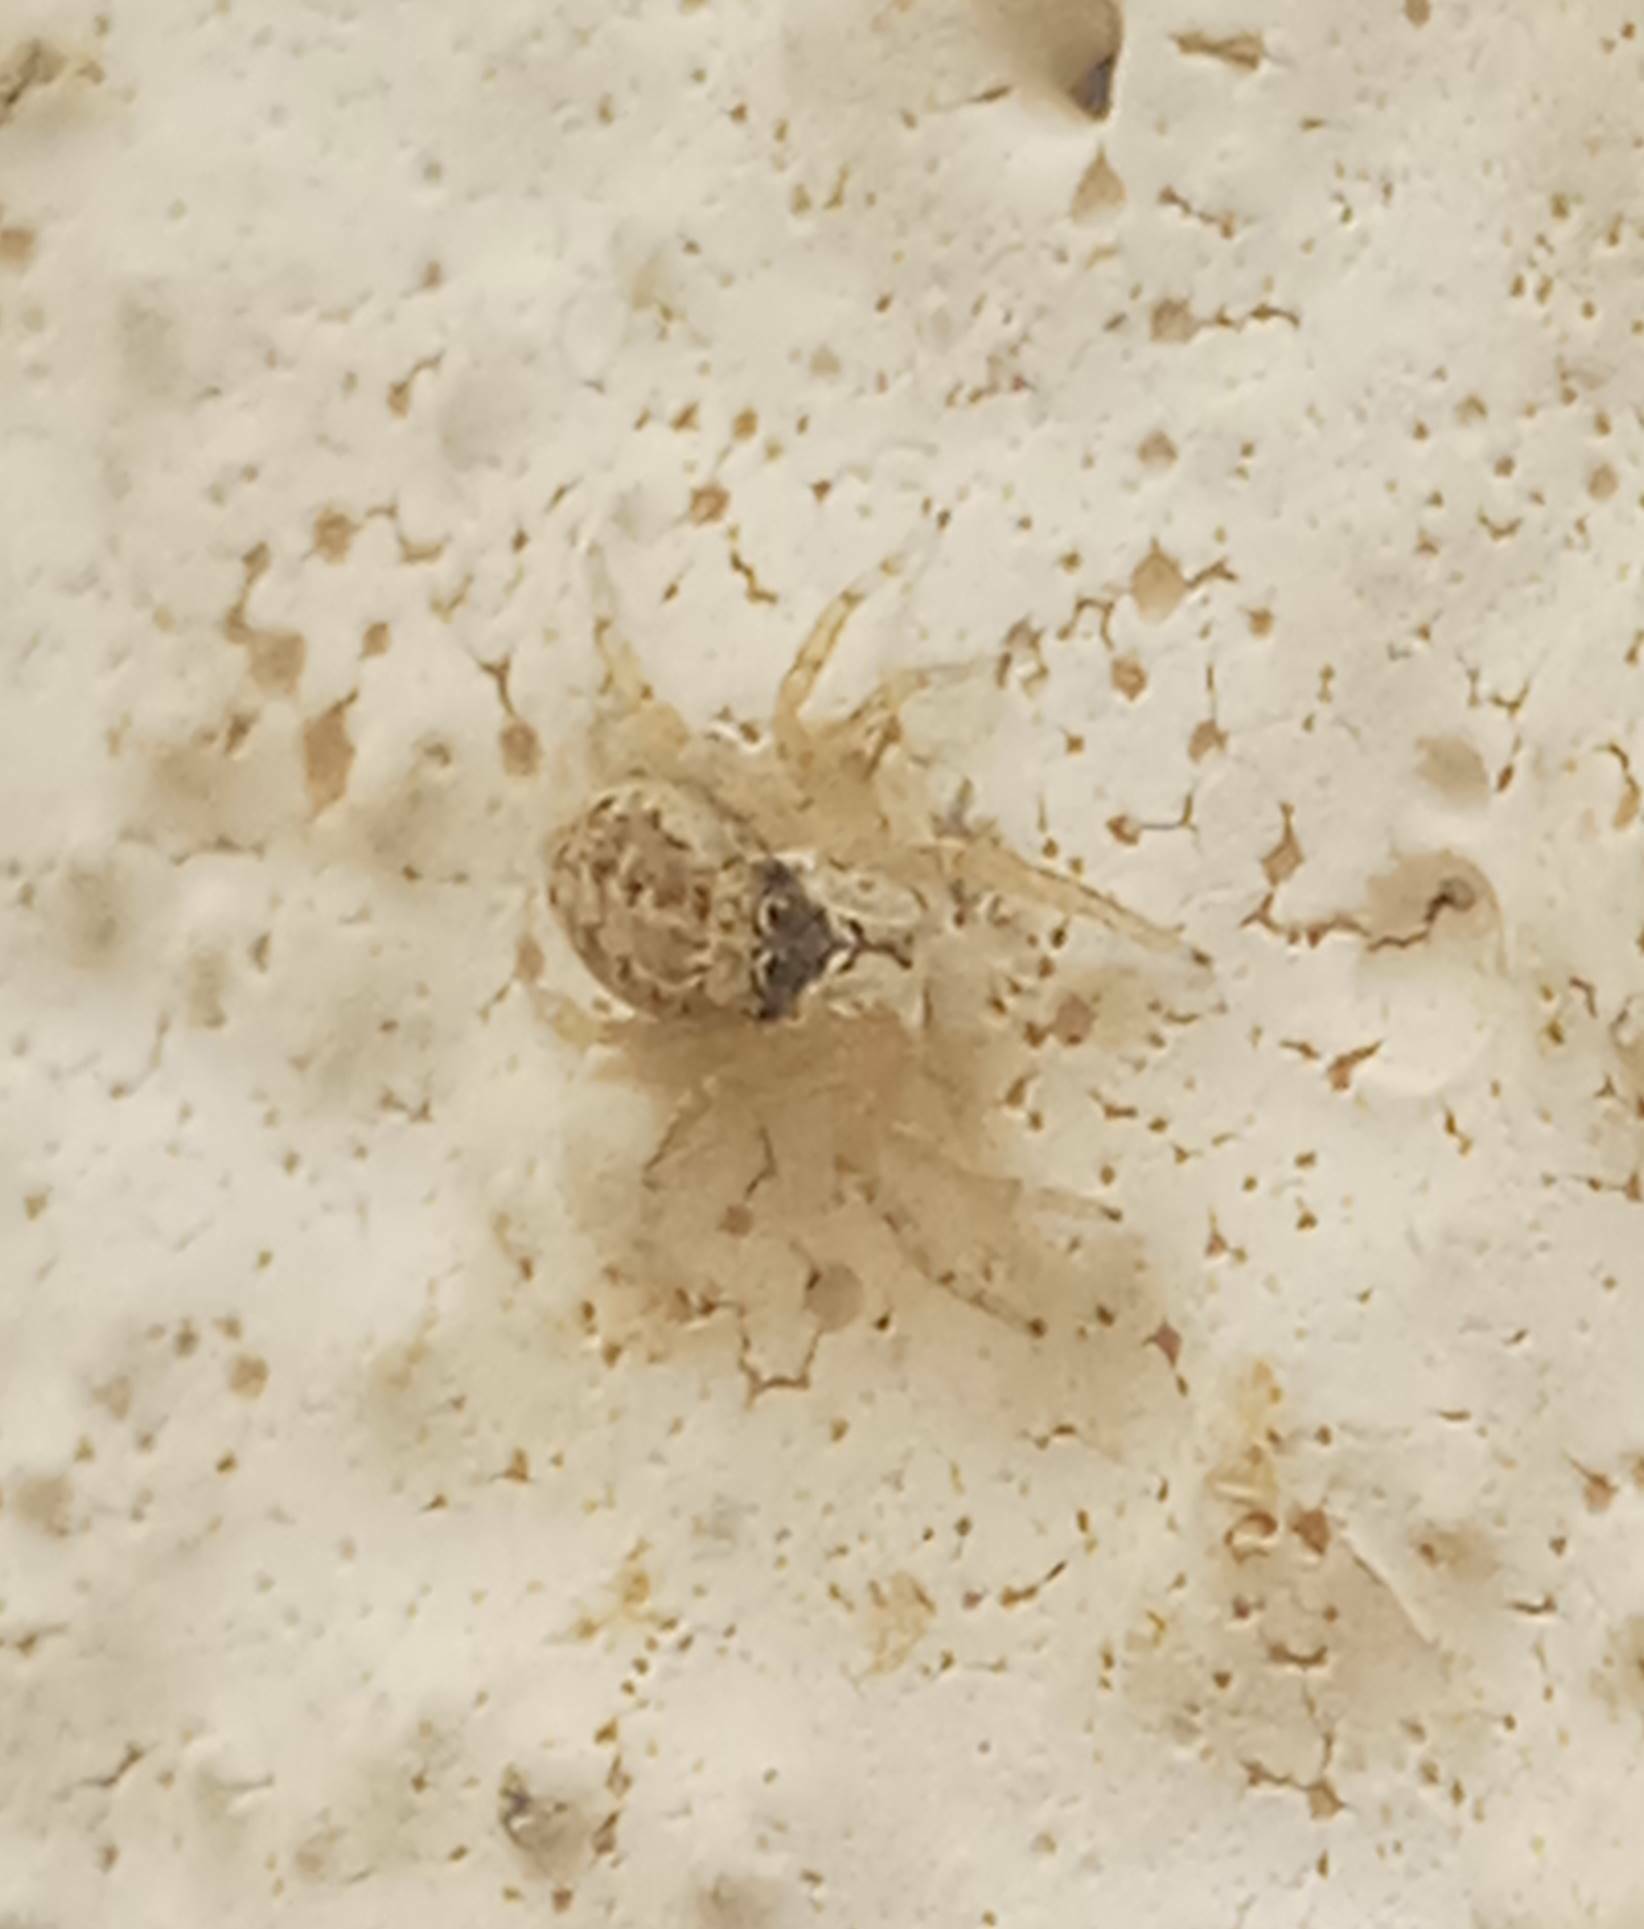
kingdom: Animalia
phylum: Arthropoda
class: Arachnida
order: Araneae
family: Salticidae
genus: Menemerus
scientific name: Menemerus semilimbatus
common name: Jumping spider
